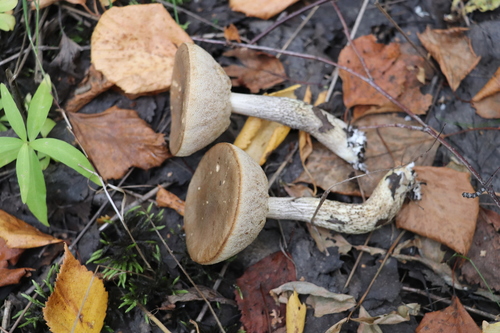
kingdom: Fungi
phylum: Basidiomycota
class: Agaricomycetes
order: Boletales
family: Boletaceae
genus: Leccinum
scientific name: Leccinum scabrum
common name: Blushing bolete
